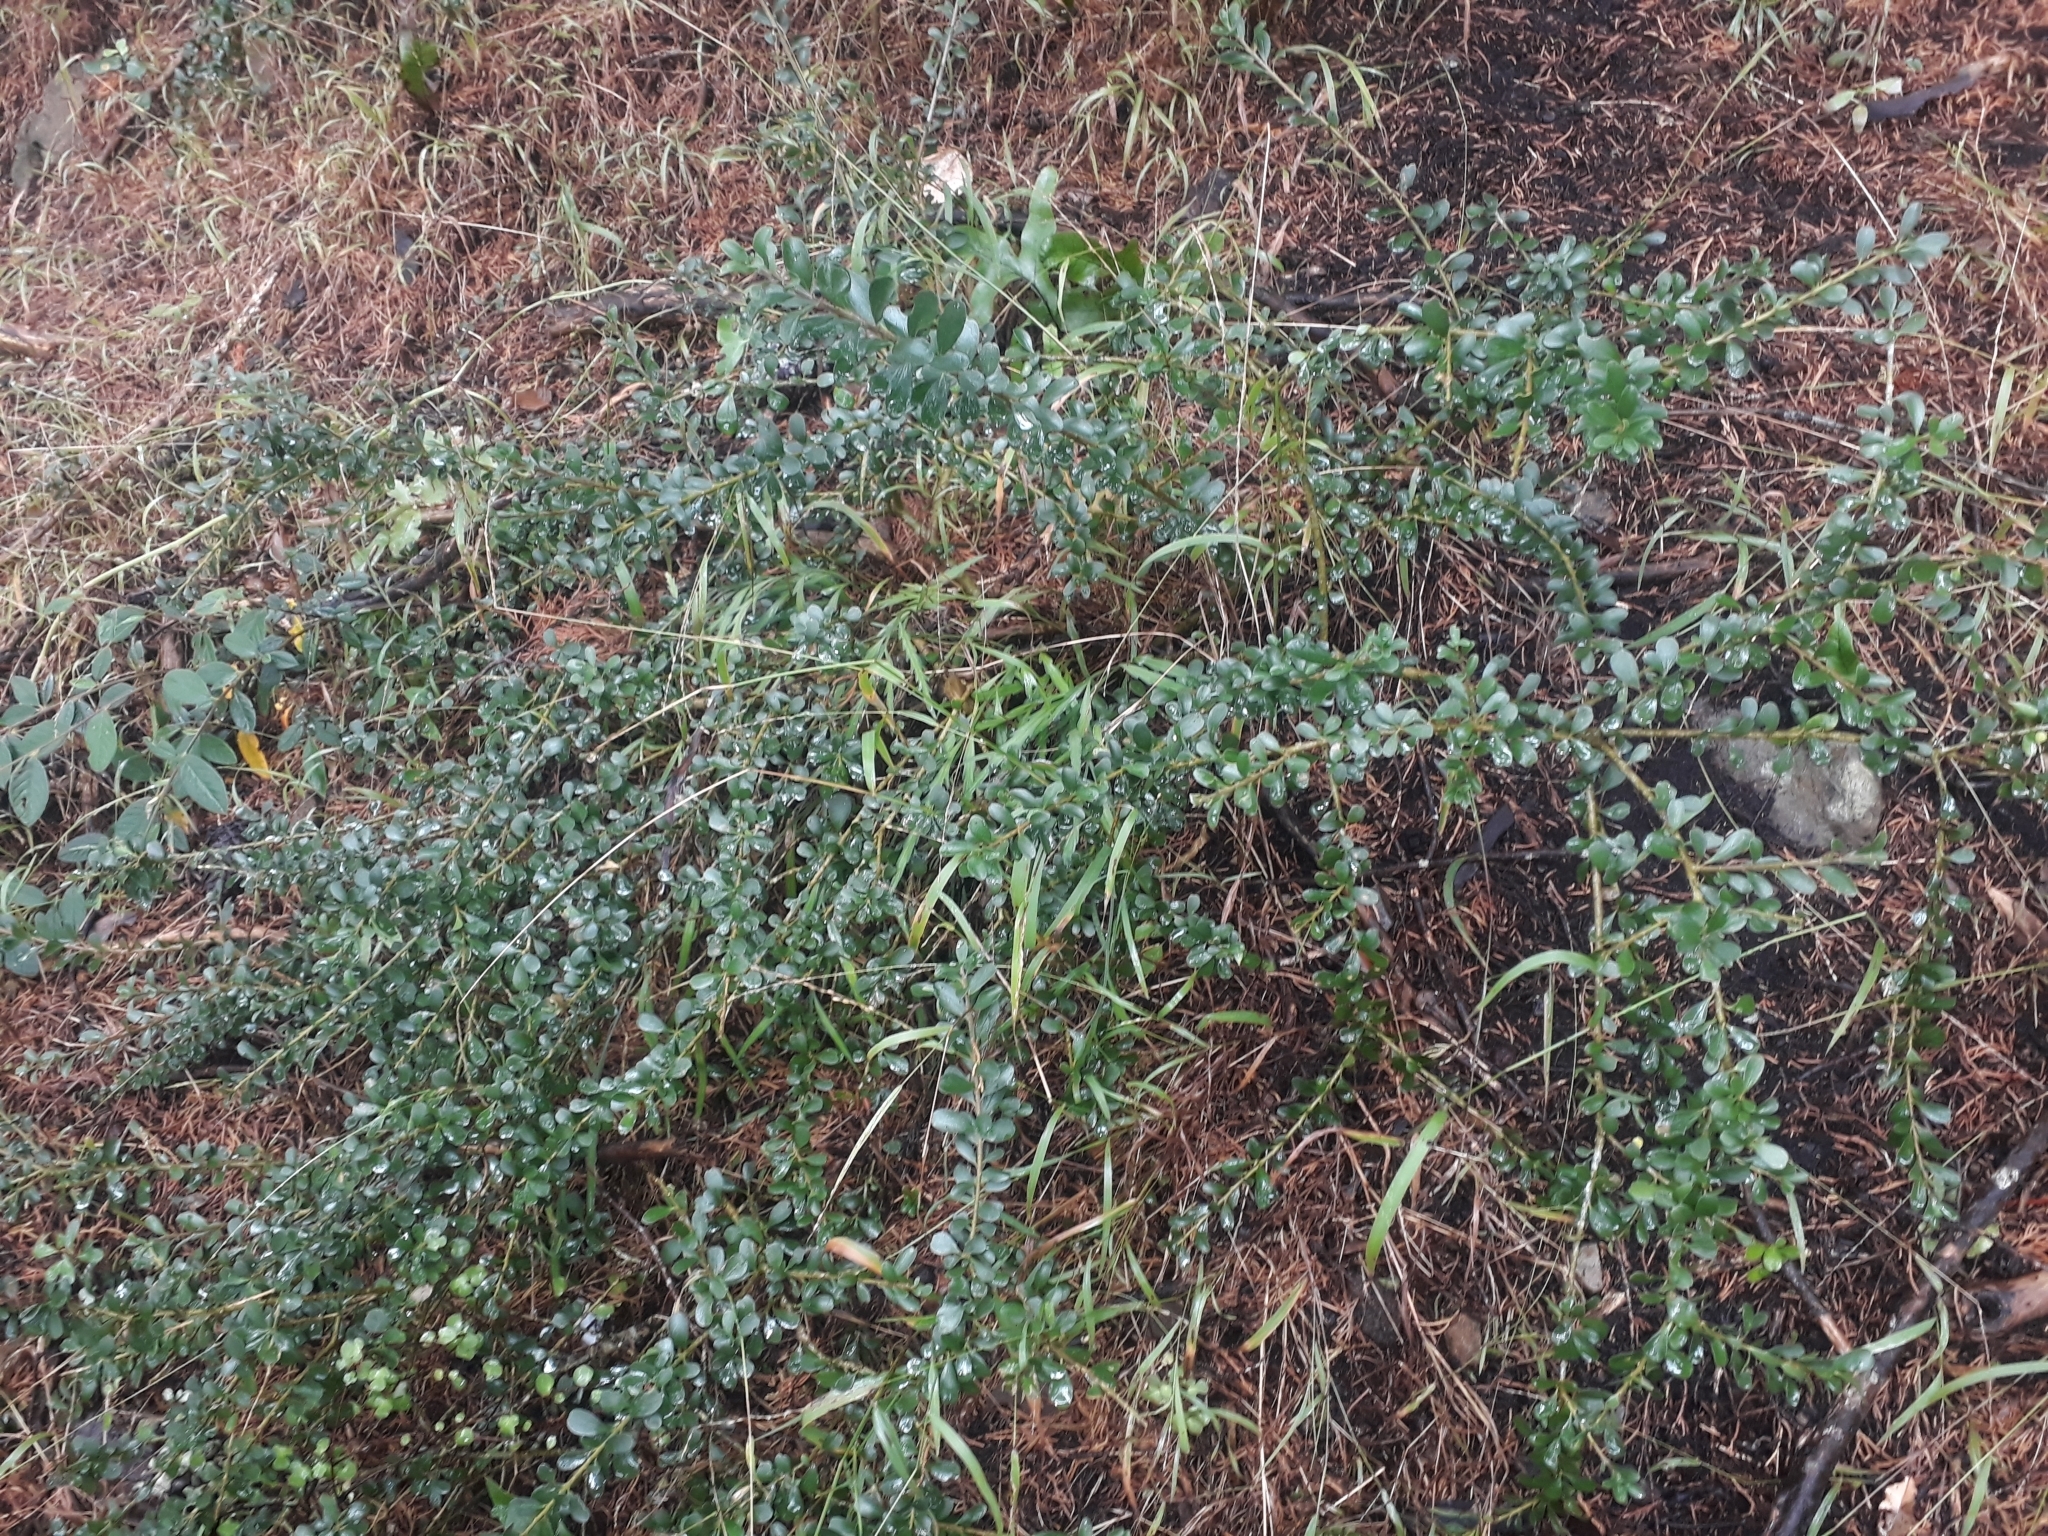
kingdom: Plantae
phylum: Tracheophyta
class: Magnoliopsida
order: Malpighiales
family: Violaceae
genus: Melicytus
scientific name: Melicytus crassifolius
